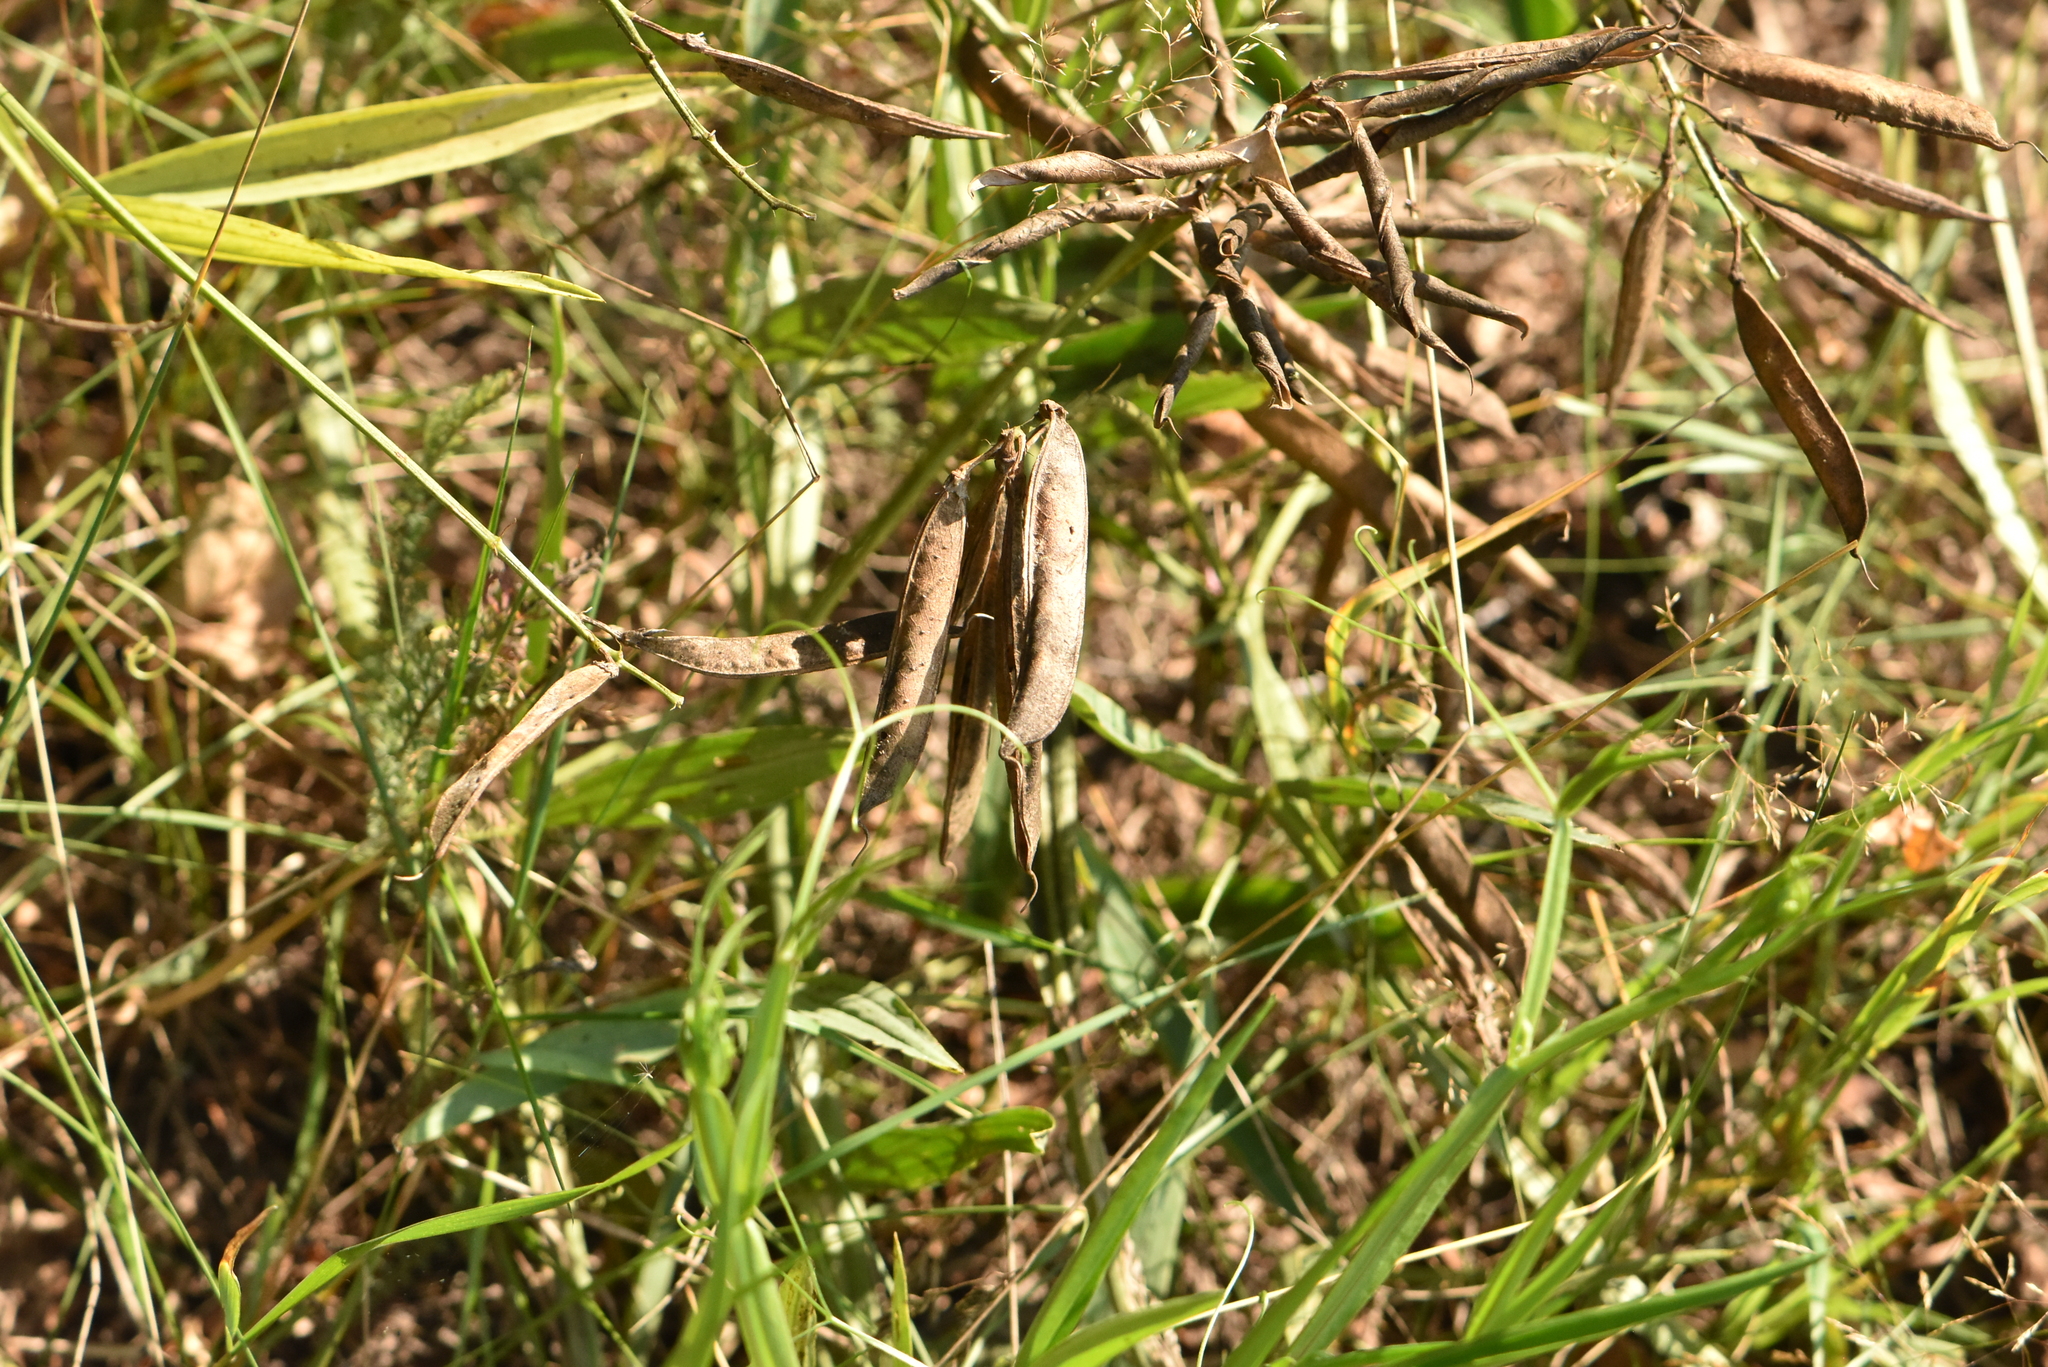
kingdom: Plantae
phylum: Tracheophyta
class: Magnoliopsida
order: Fabales
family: Fabaceae
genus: Lathyrus
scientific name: Lathyrus sylvestris
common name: Flat pea
